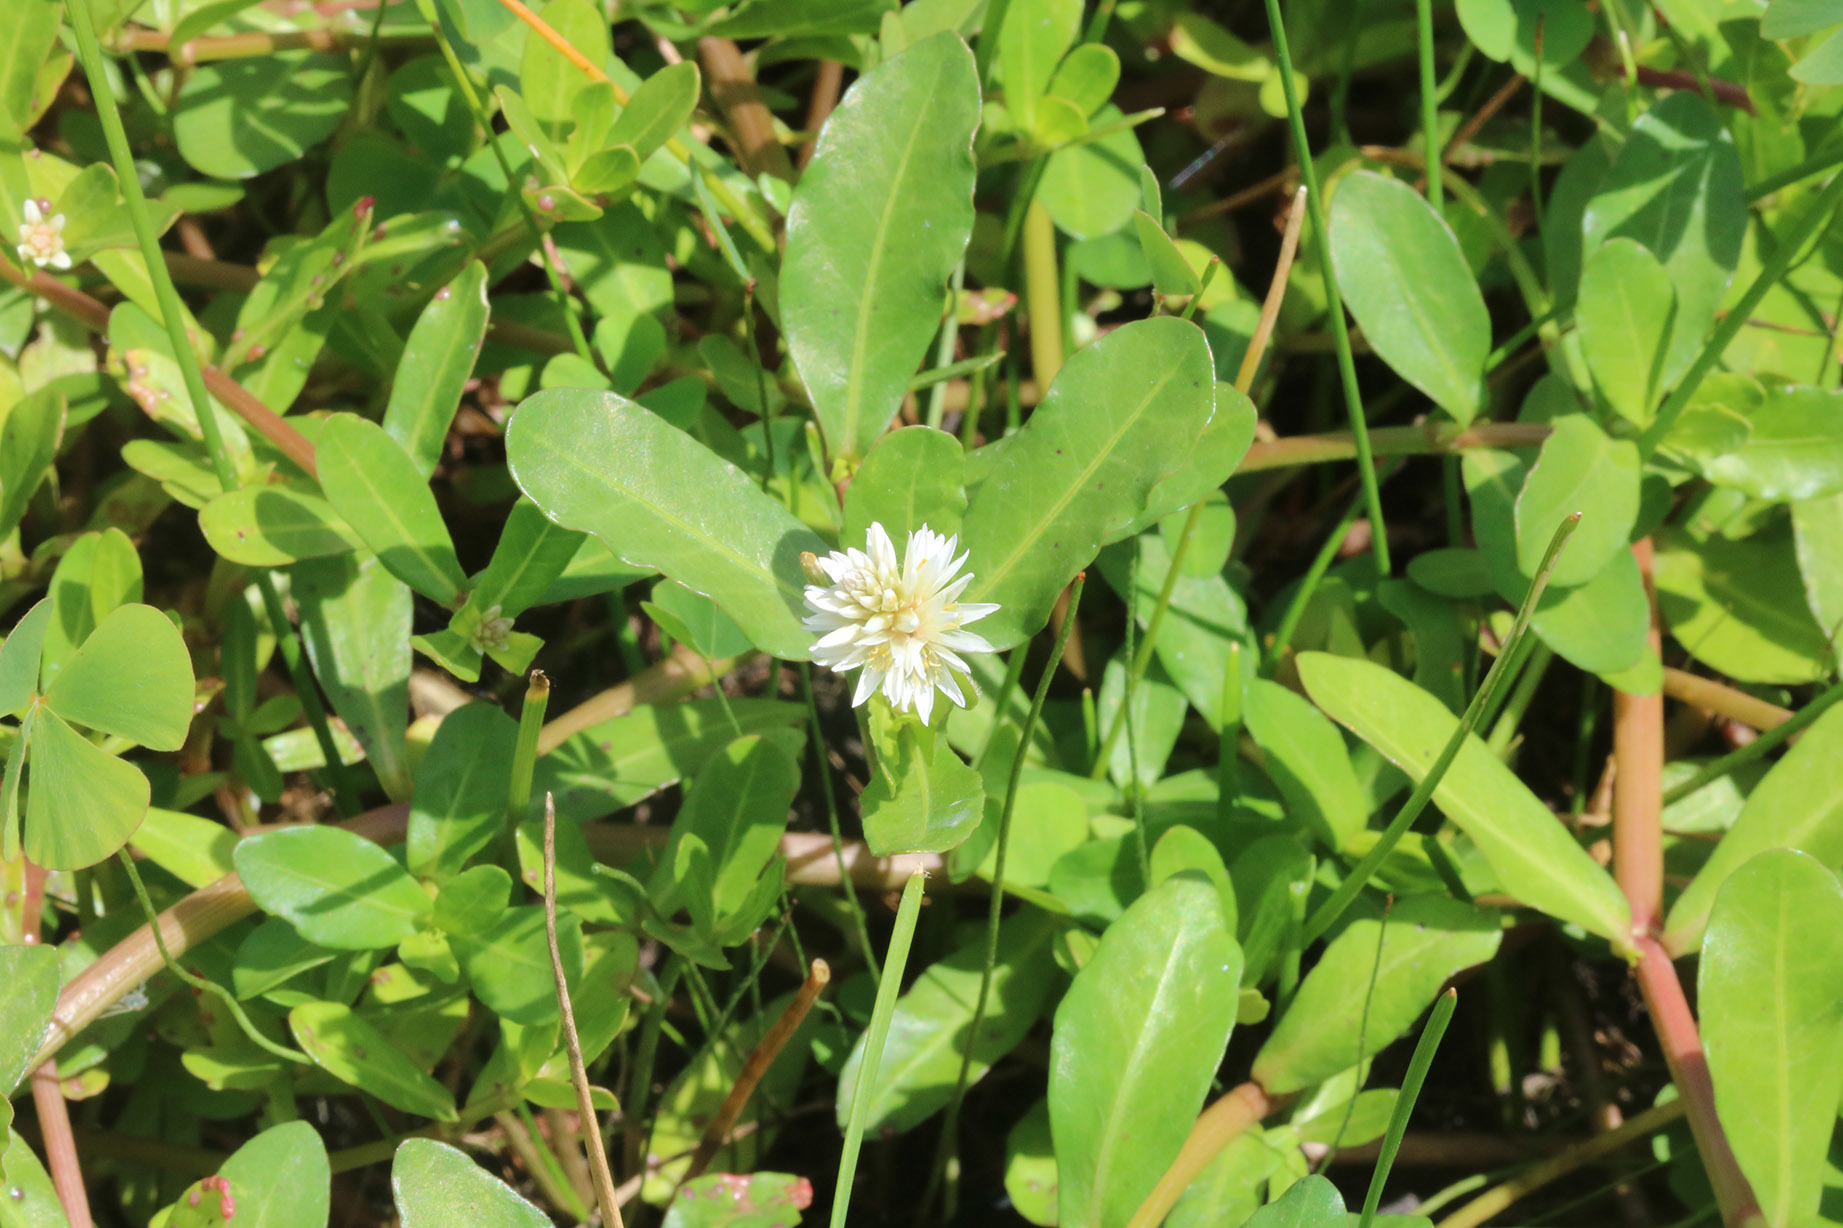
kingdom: Plantae
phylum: Tracheophyta
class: Magnoliopsida
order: Caryophyllales
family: Amaranthaceae
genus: Alternanthera
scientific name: Alternanthera philoxeroides
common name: Alligatorweed
